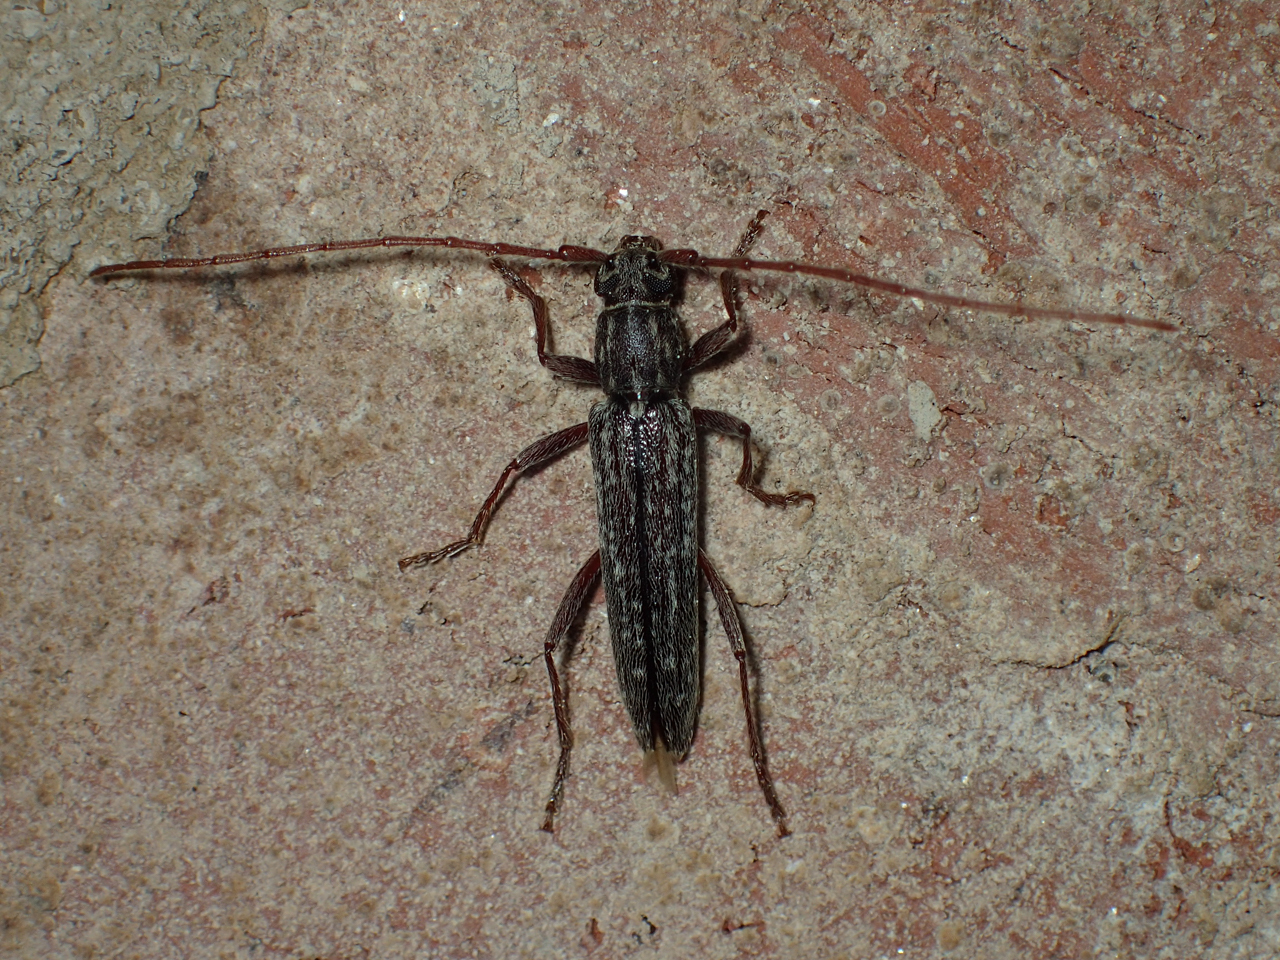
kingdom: Animalia
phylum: Arthropoda
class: Insecta
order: Coleoptera
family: Cerambycidae
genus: Anelaphus
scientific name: Anelaphus villosus
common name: Twig pruner
